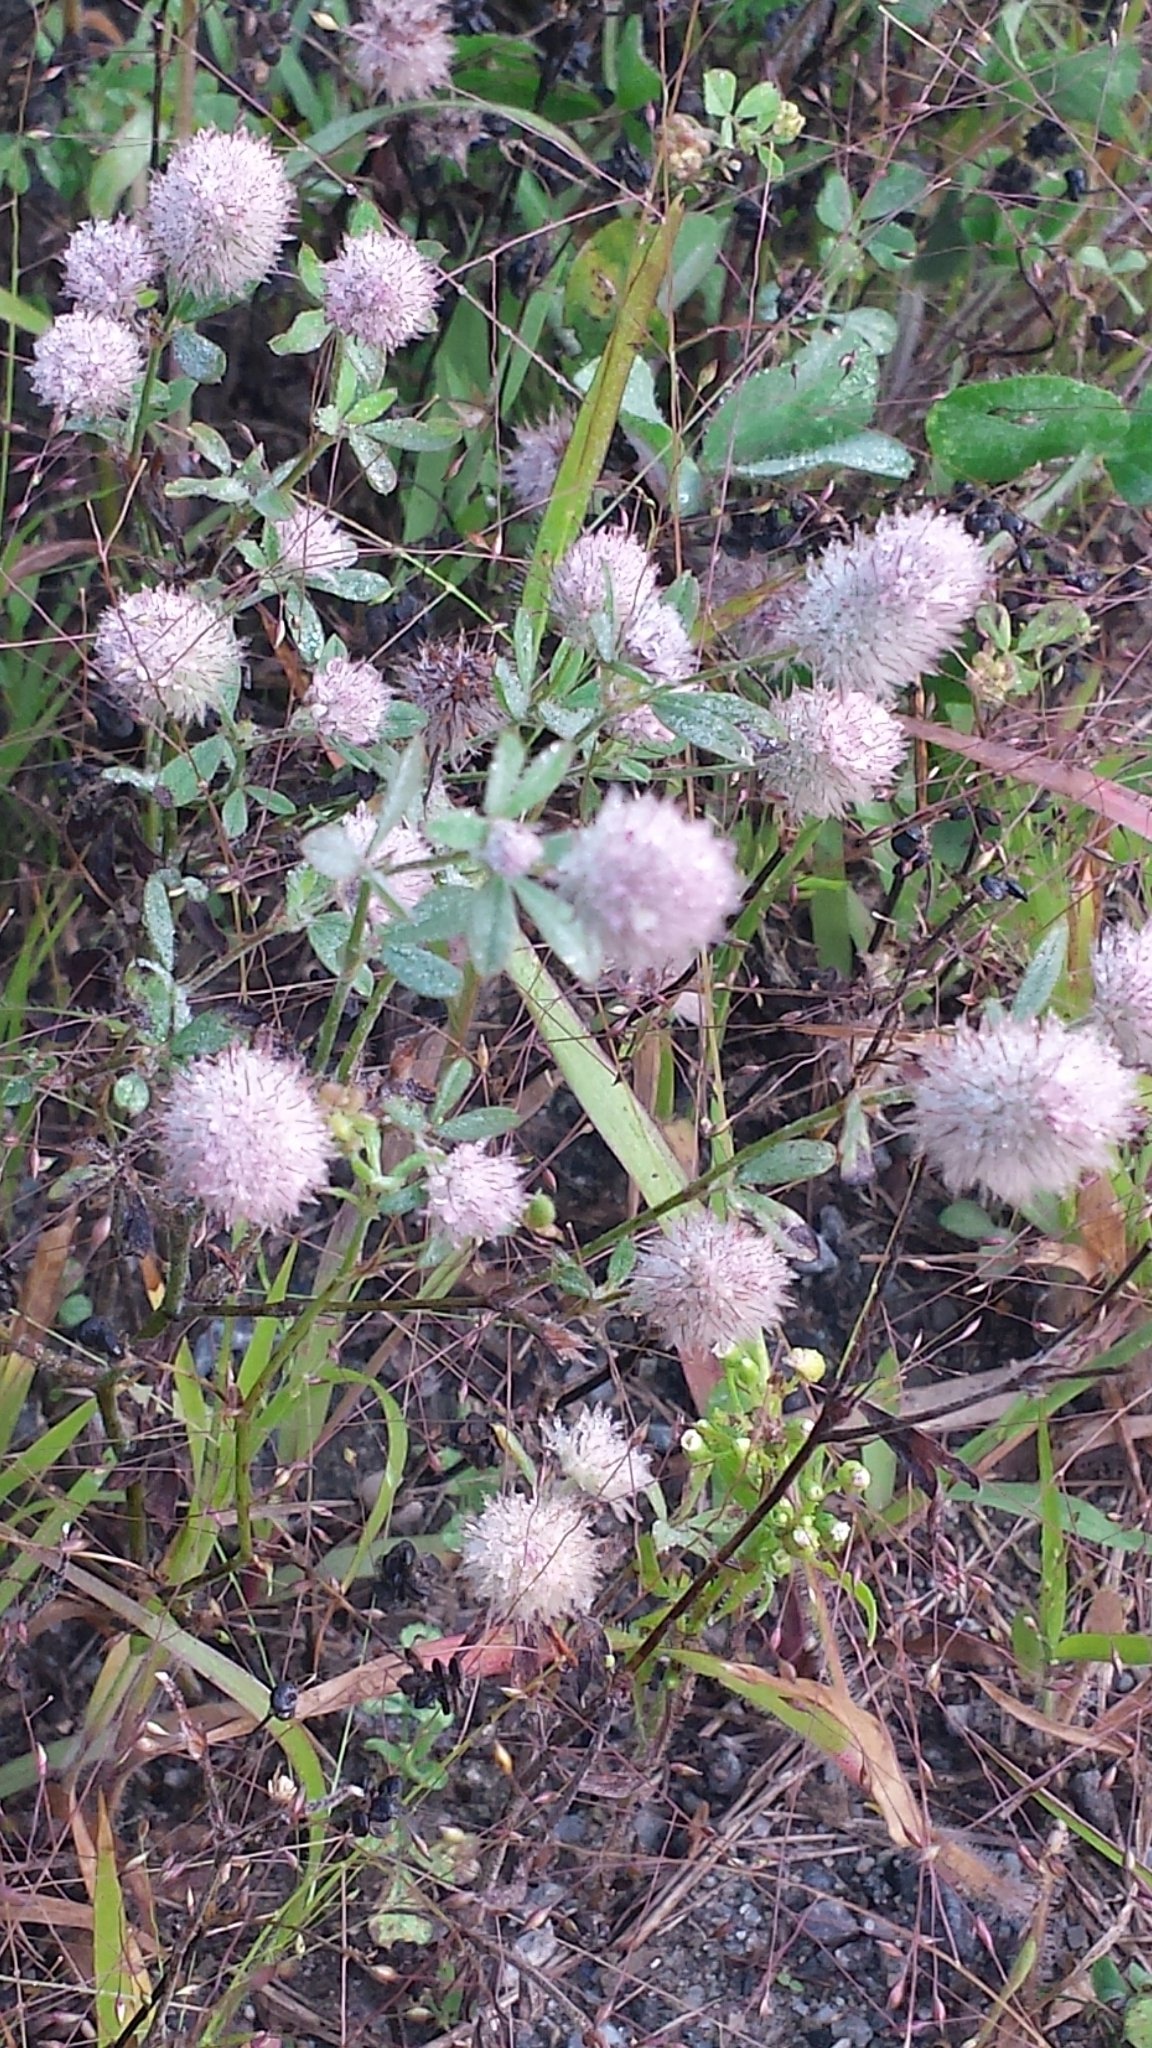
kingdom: Plantae
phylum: Tracheophyta
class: Magnoliopsida
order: Fabales
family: Fabaceae
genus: Trifolium
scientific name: Trifolium arvense
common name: Hare's-foot clover
